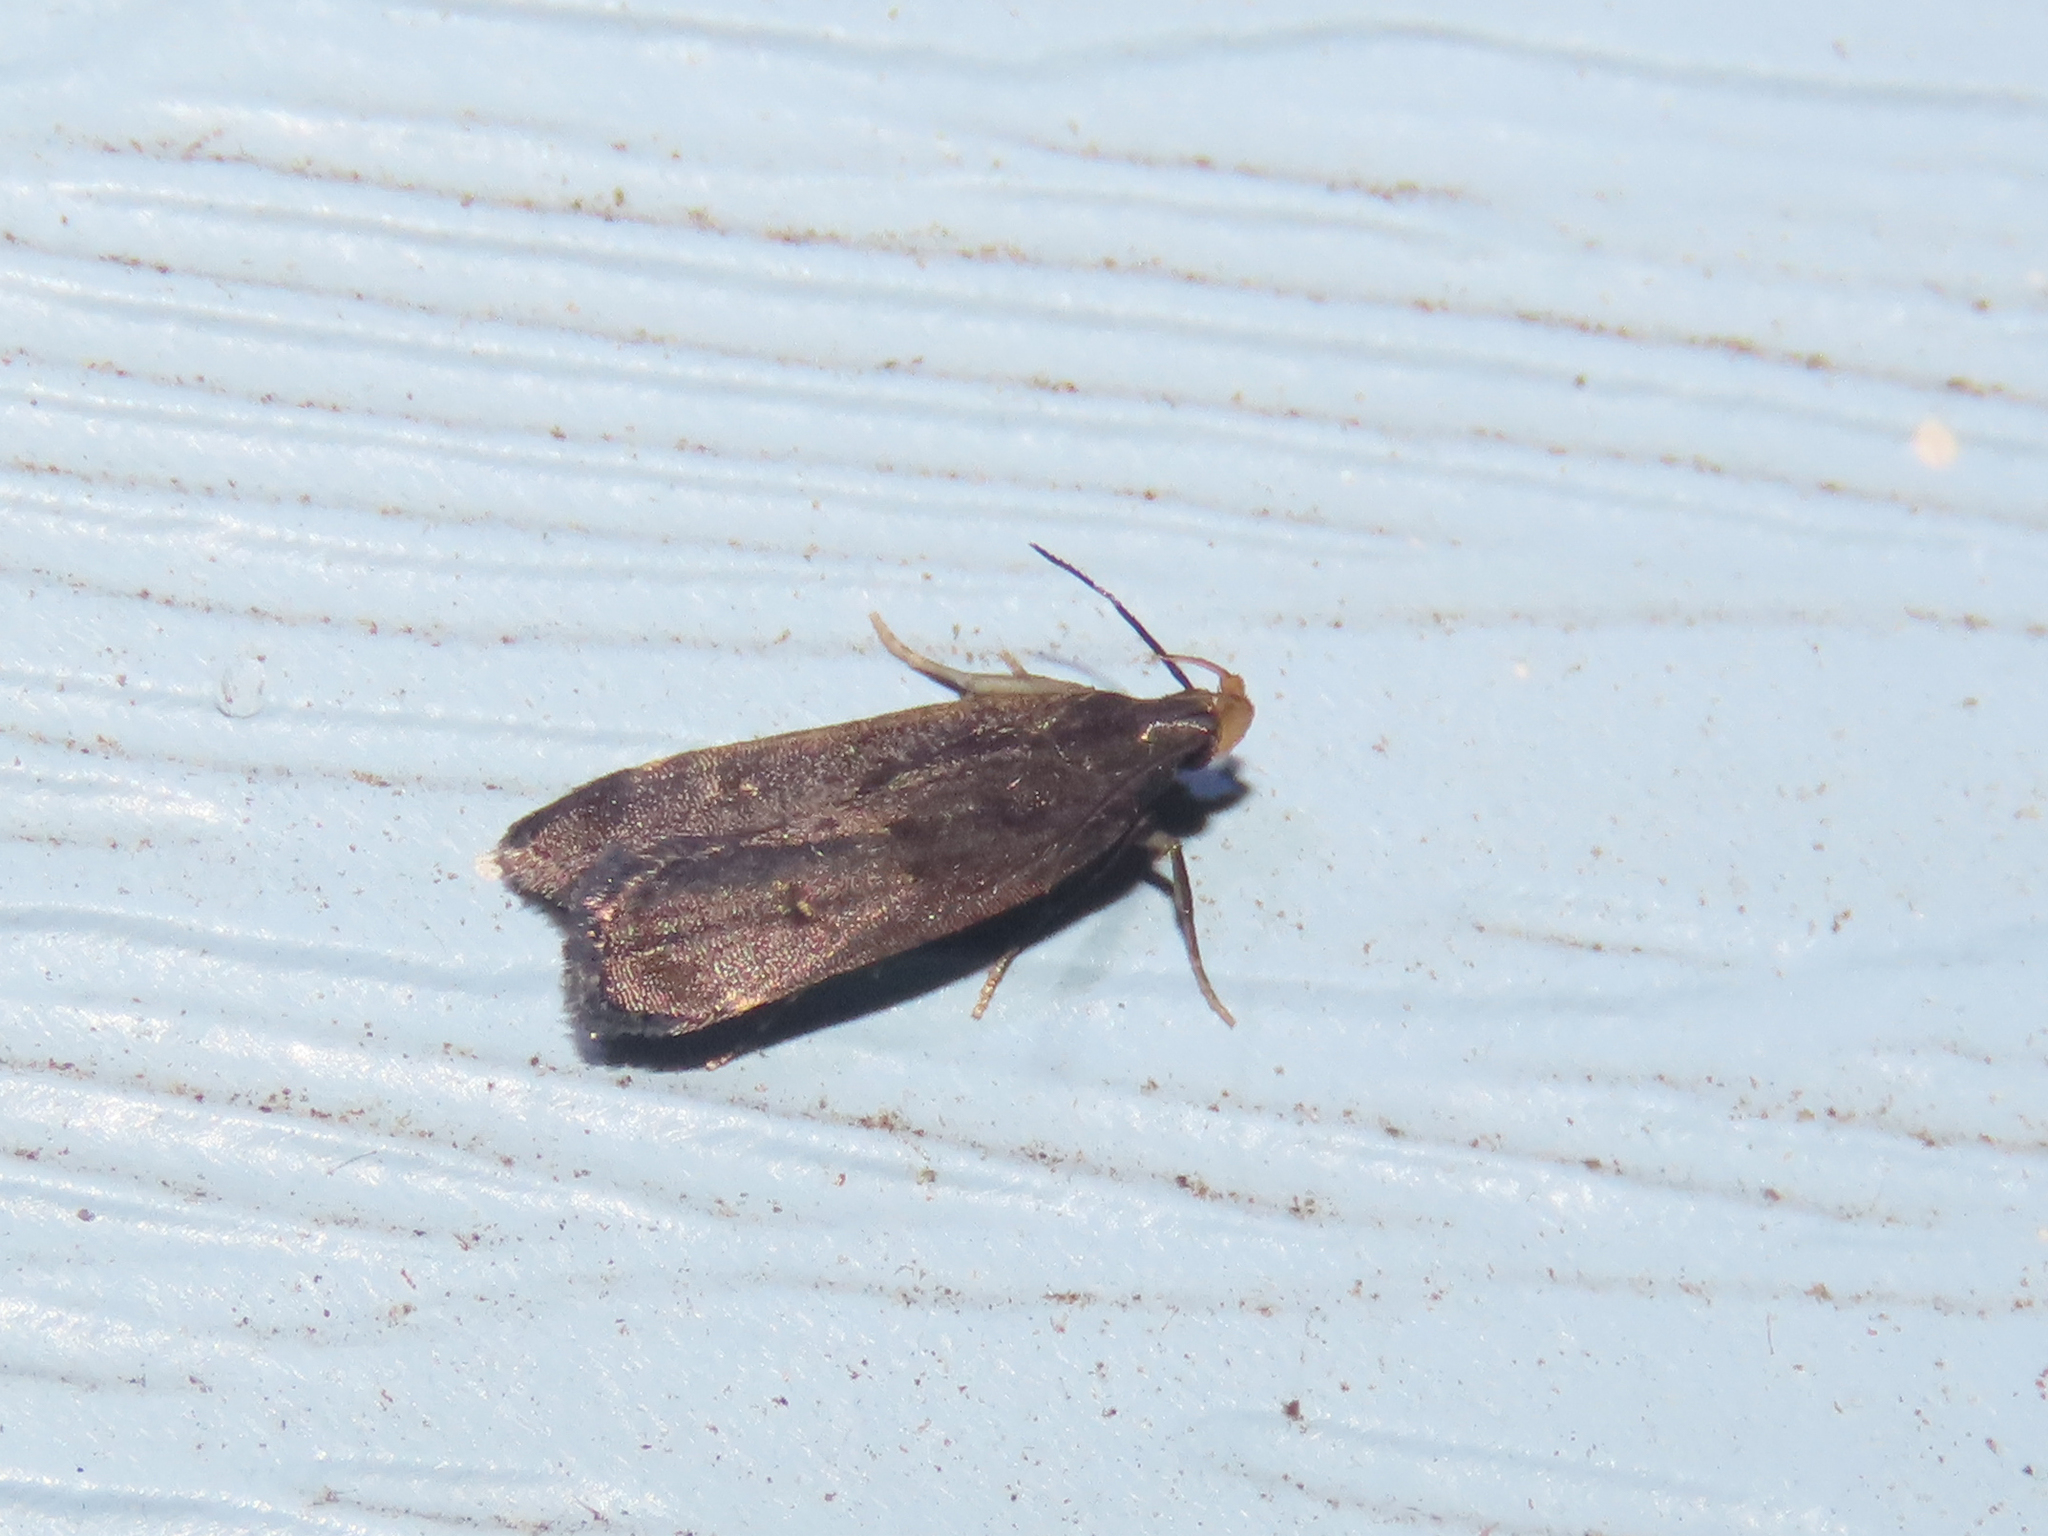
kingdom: Animalia
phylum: Arthropoda
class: Insecta
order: Lepidoptera
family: Gelechiidae
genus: Dichomeris
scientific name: Dichomeris juncidella
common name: Orange-dotted dichomeris moth
